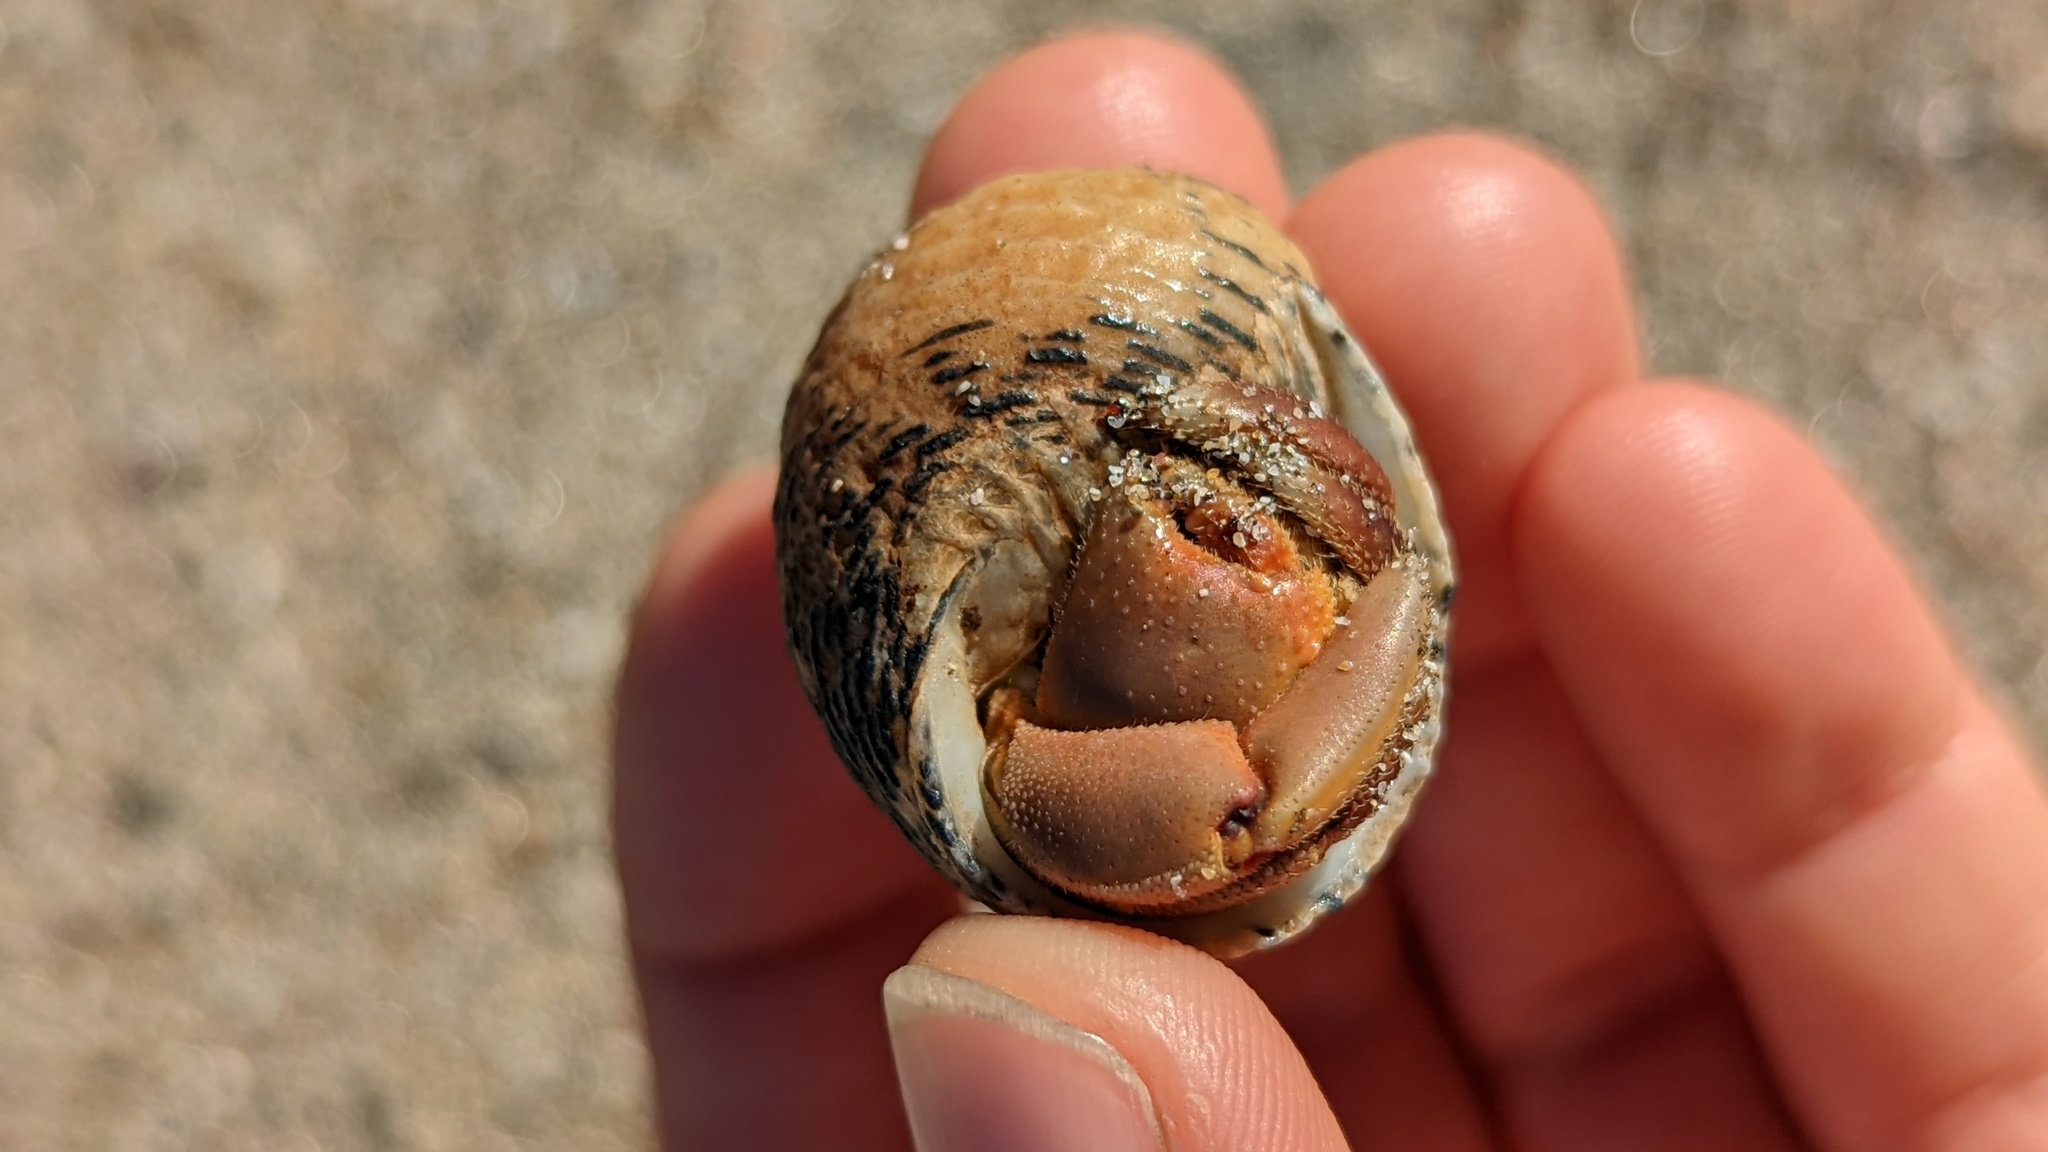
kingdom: Animalia
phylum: Mollusca
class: Gastropoda
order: Cycloneritida
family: Neritidae
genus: Nerita
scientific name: Nerita scabricosta
